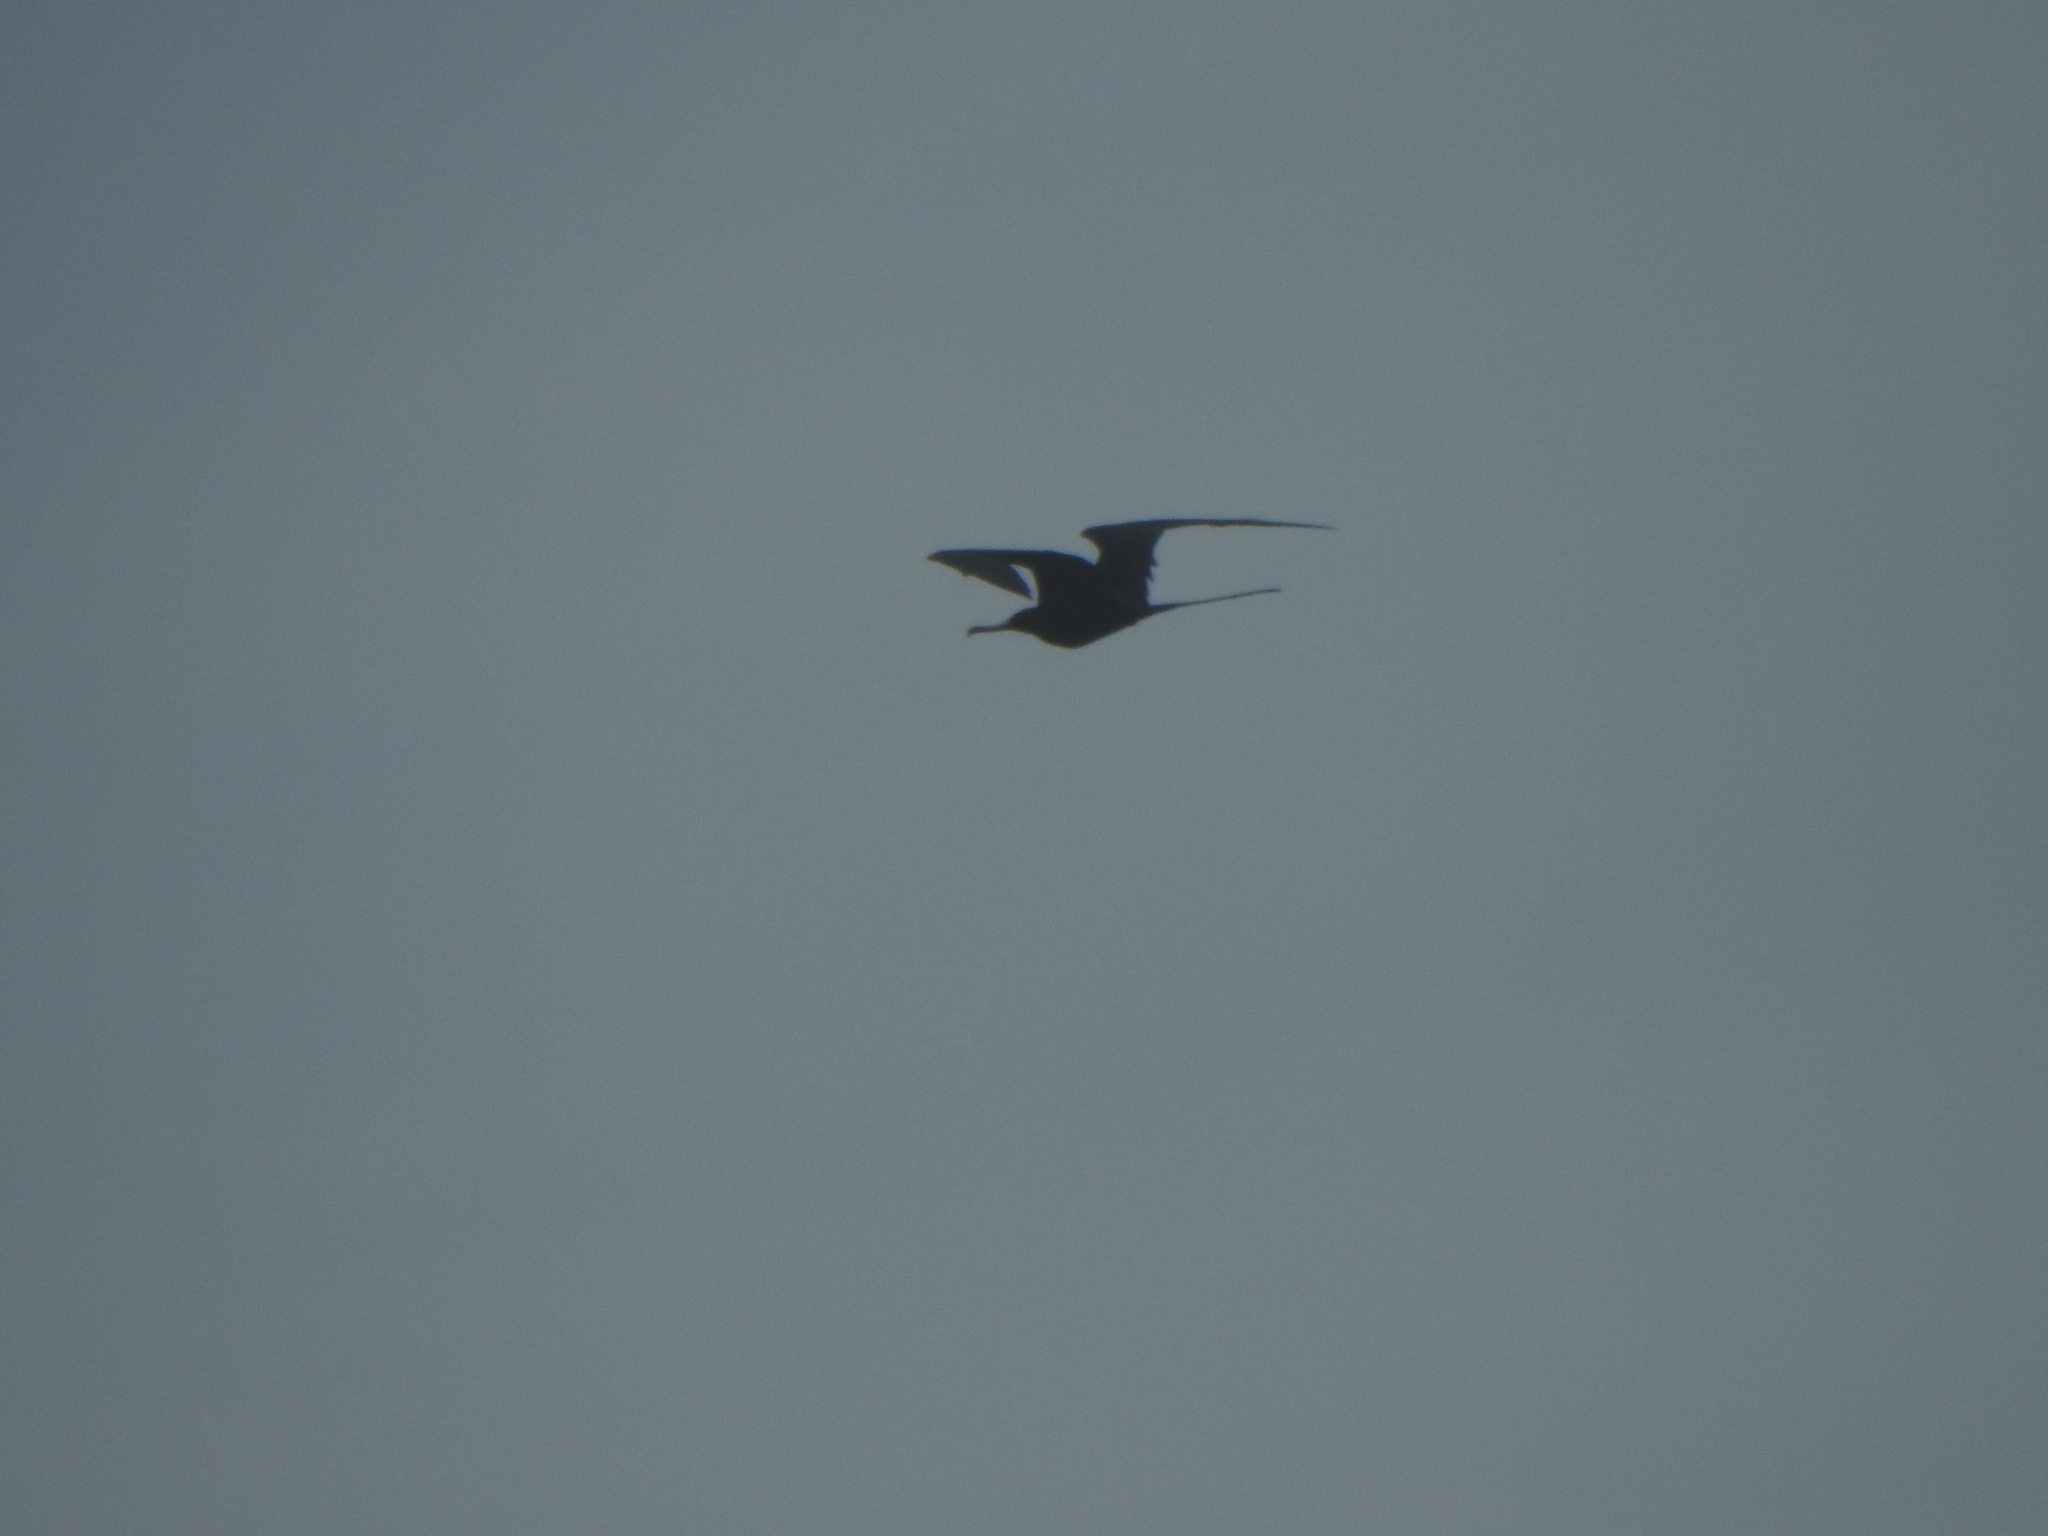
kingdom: Animalia
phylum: Chordata
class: Aves
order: Suliformes
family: Fregatidae
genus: Fregata
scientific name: Fregata magnificens
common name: Magnificent frigatebird
